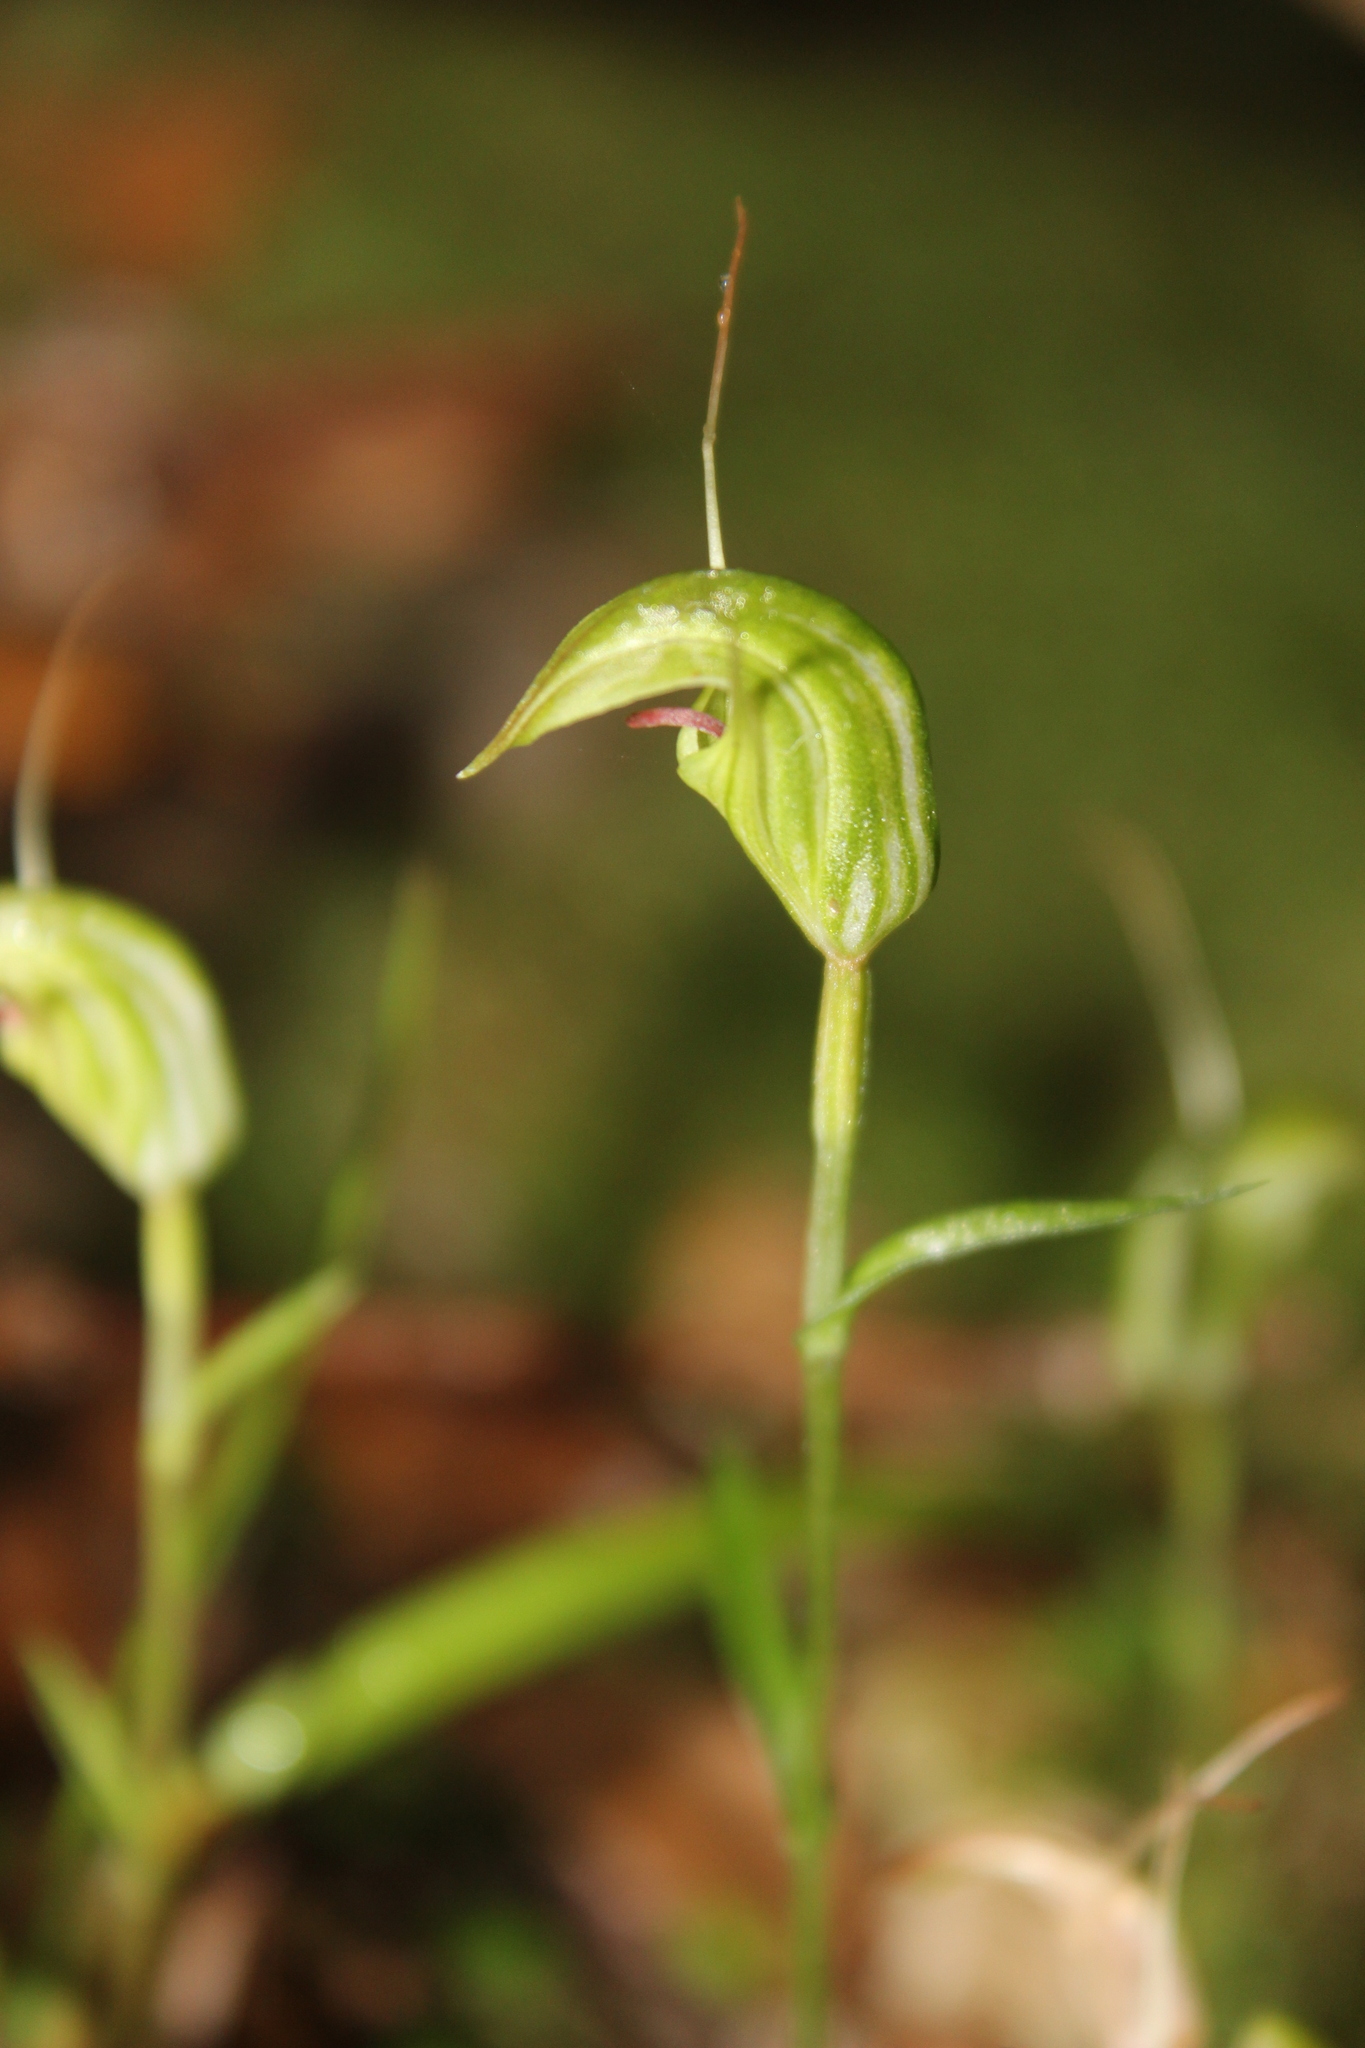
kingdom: Plantae
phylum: Tracheophyta
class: Liliopsida
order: Asparagales
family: Orchidaceae
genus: Pterostylis
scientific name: Pterostylis trullifolia
